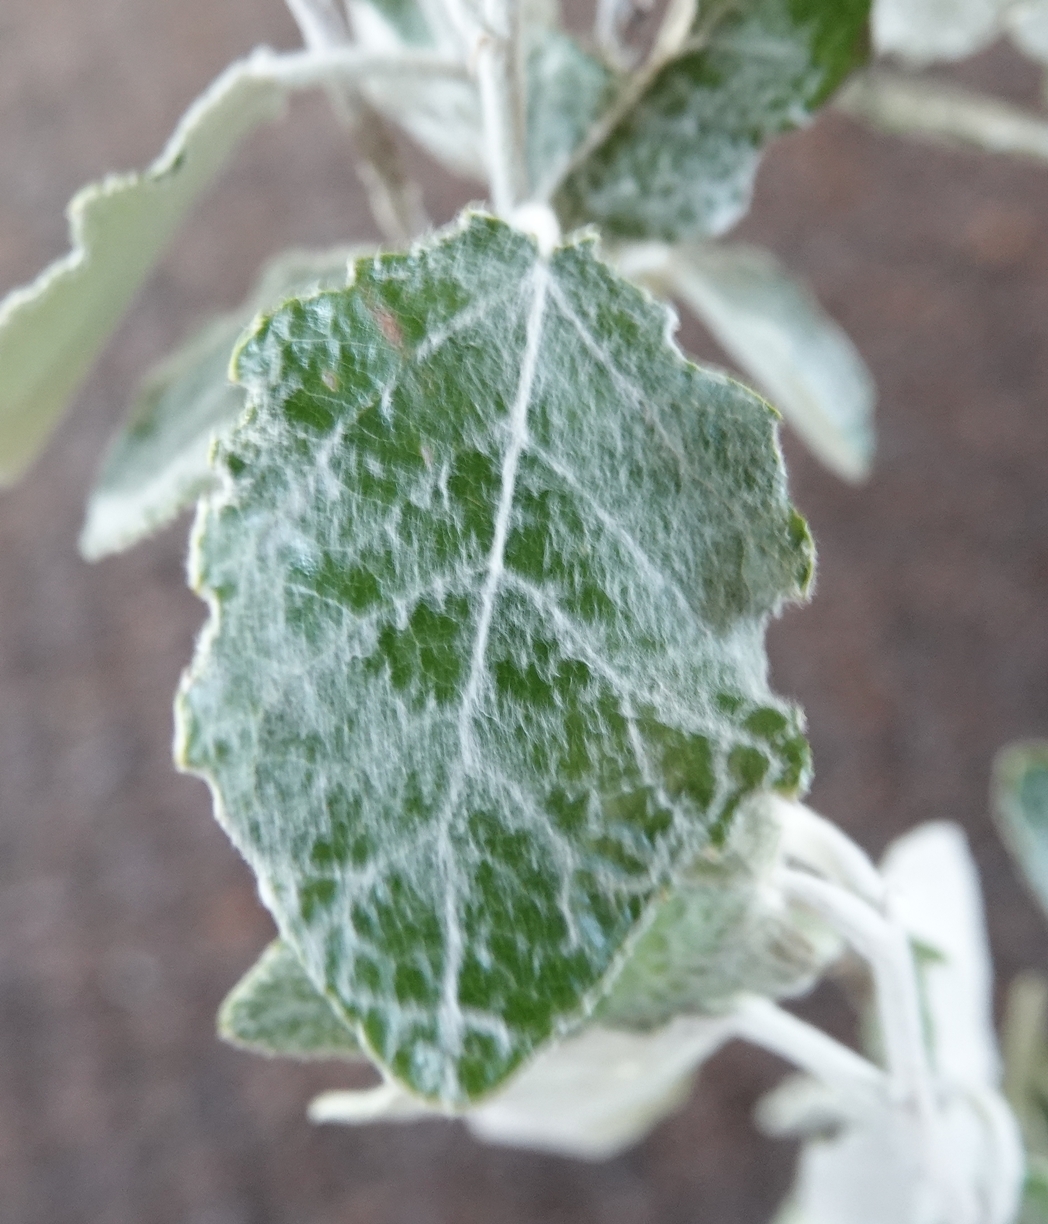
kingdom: Plantae
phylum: Tracheophyta
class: Magnoliopsida
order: Malpighiales
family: Salicaceae
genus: Populus
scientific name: Populus alba
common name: White poplar
